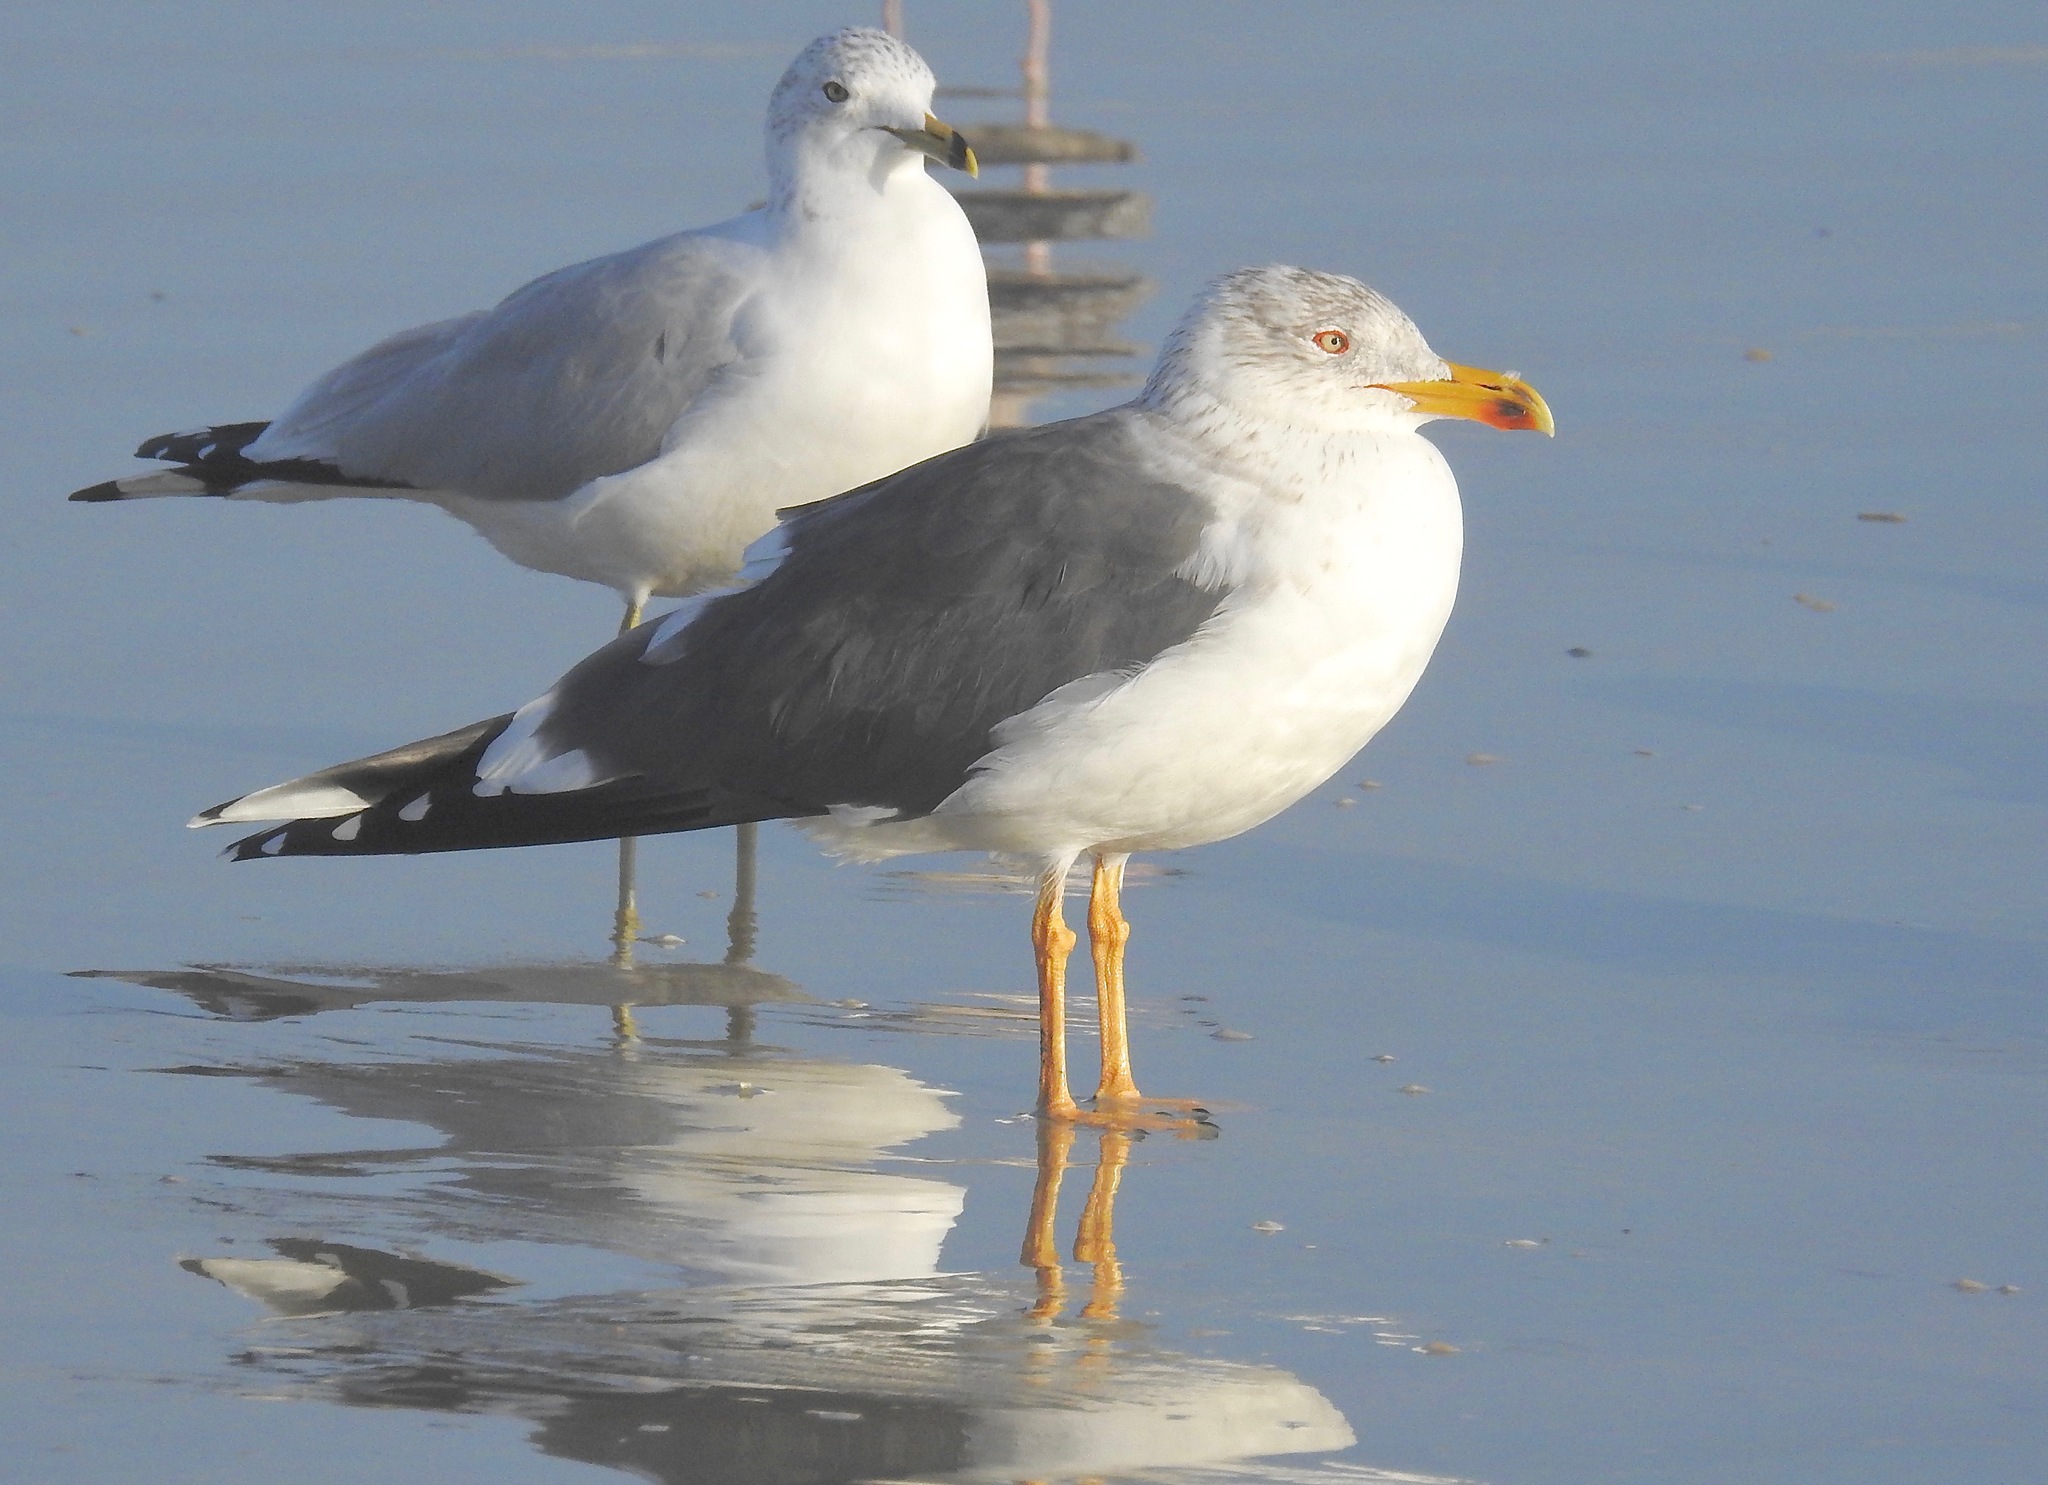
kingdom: Animalia
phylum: Chordata
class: Aves
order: Charadriiformes
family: Laridae
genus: Larus
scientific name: Larus fuscus
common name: Lesser black-backed gull
